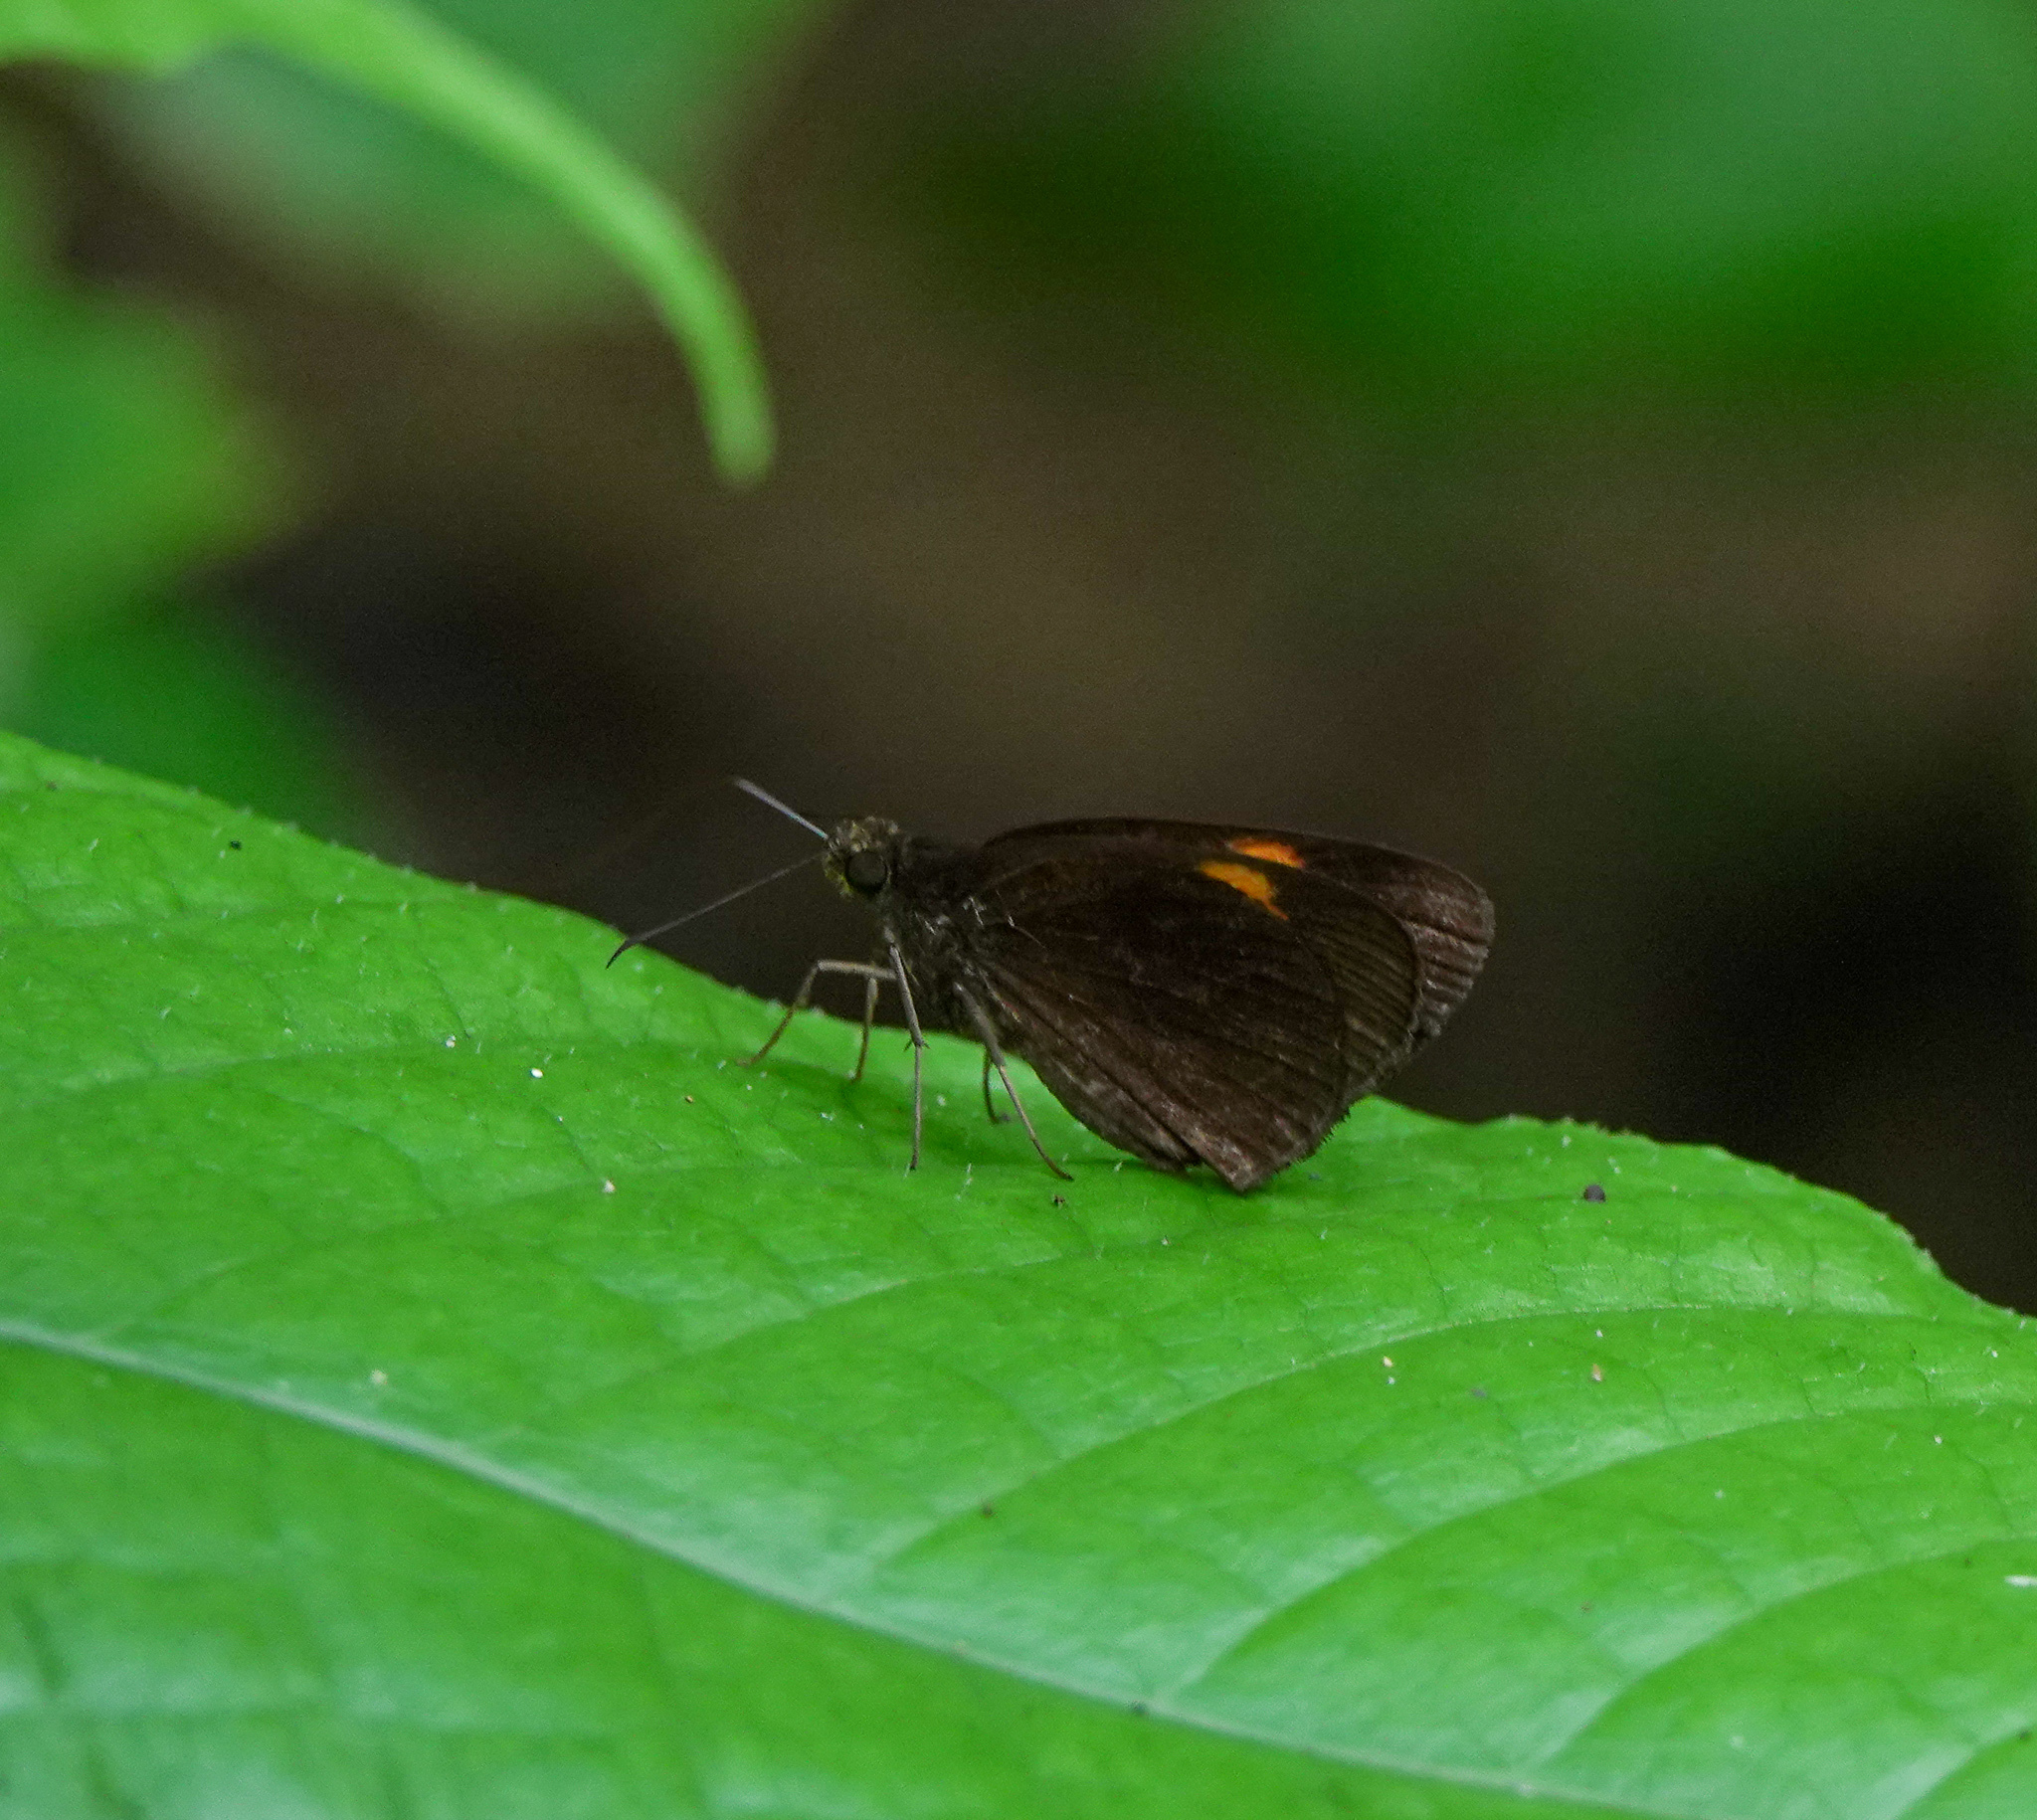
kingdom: Animalia
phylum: Arthropoda
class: Insecta
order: Lepidoptera
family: Hesperiidae
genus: Koruthaialos
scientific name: Koruthaialos sindu
